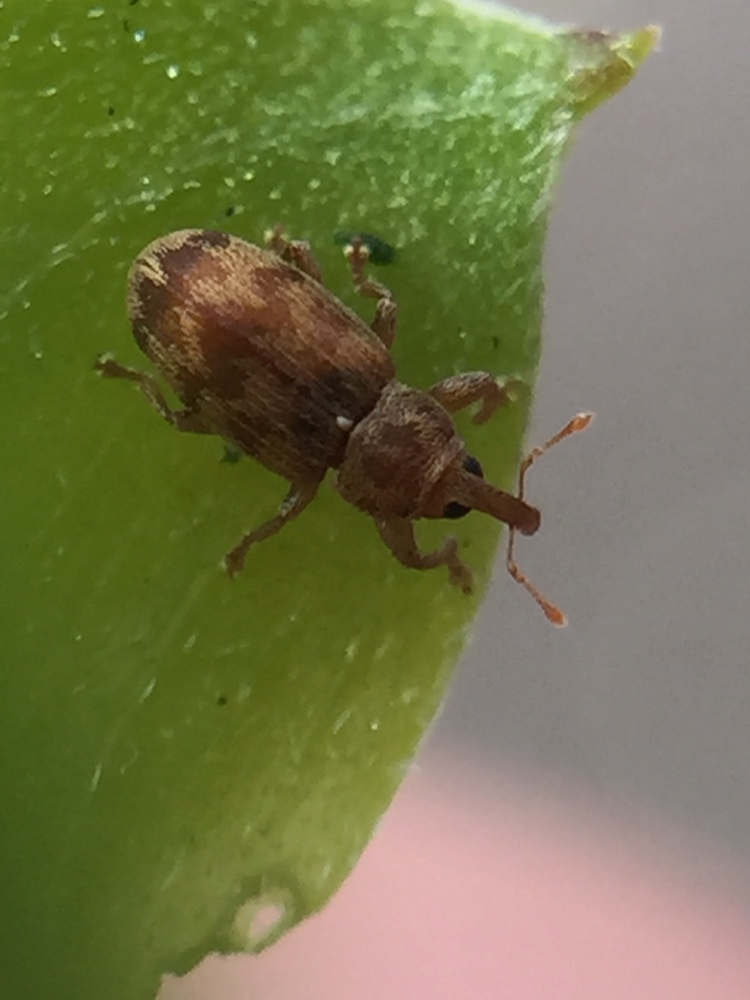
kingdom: Animalia
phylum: Arthropoda
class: Insecta
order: Coleoptera
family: Curculionidae
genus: Epamoebus
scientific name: Epamoebus ziczac
